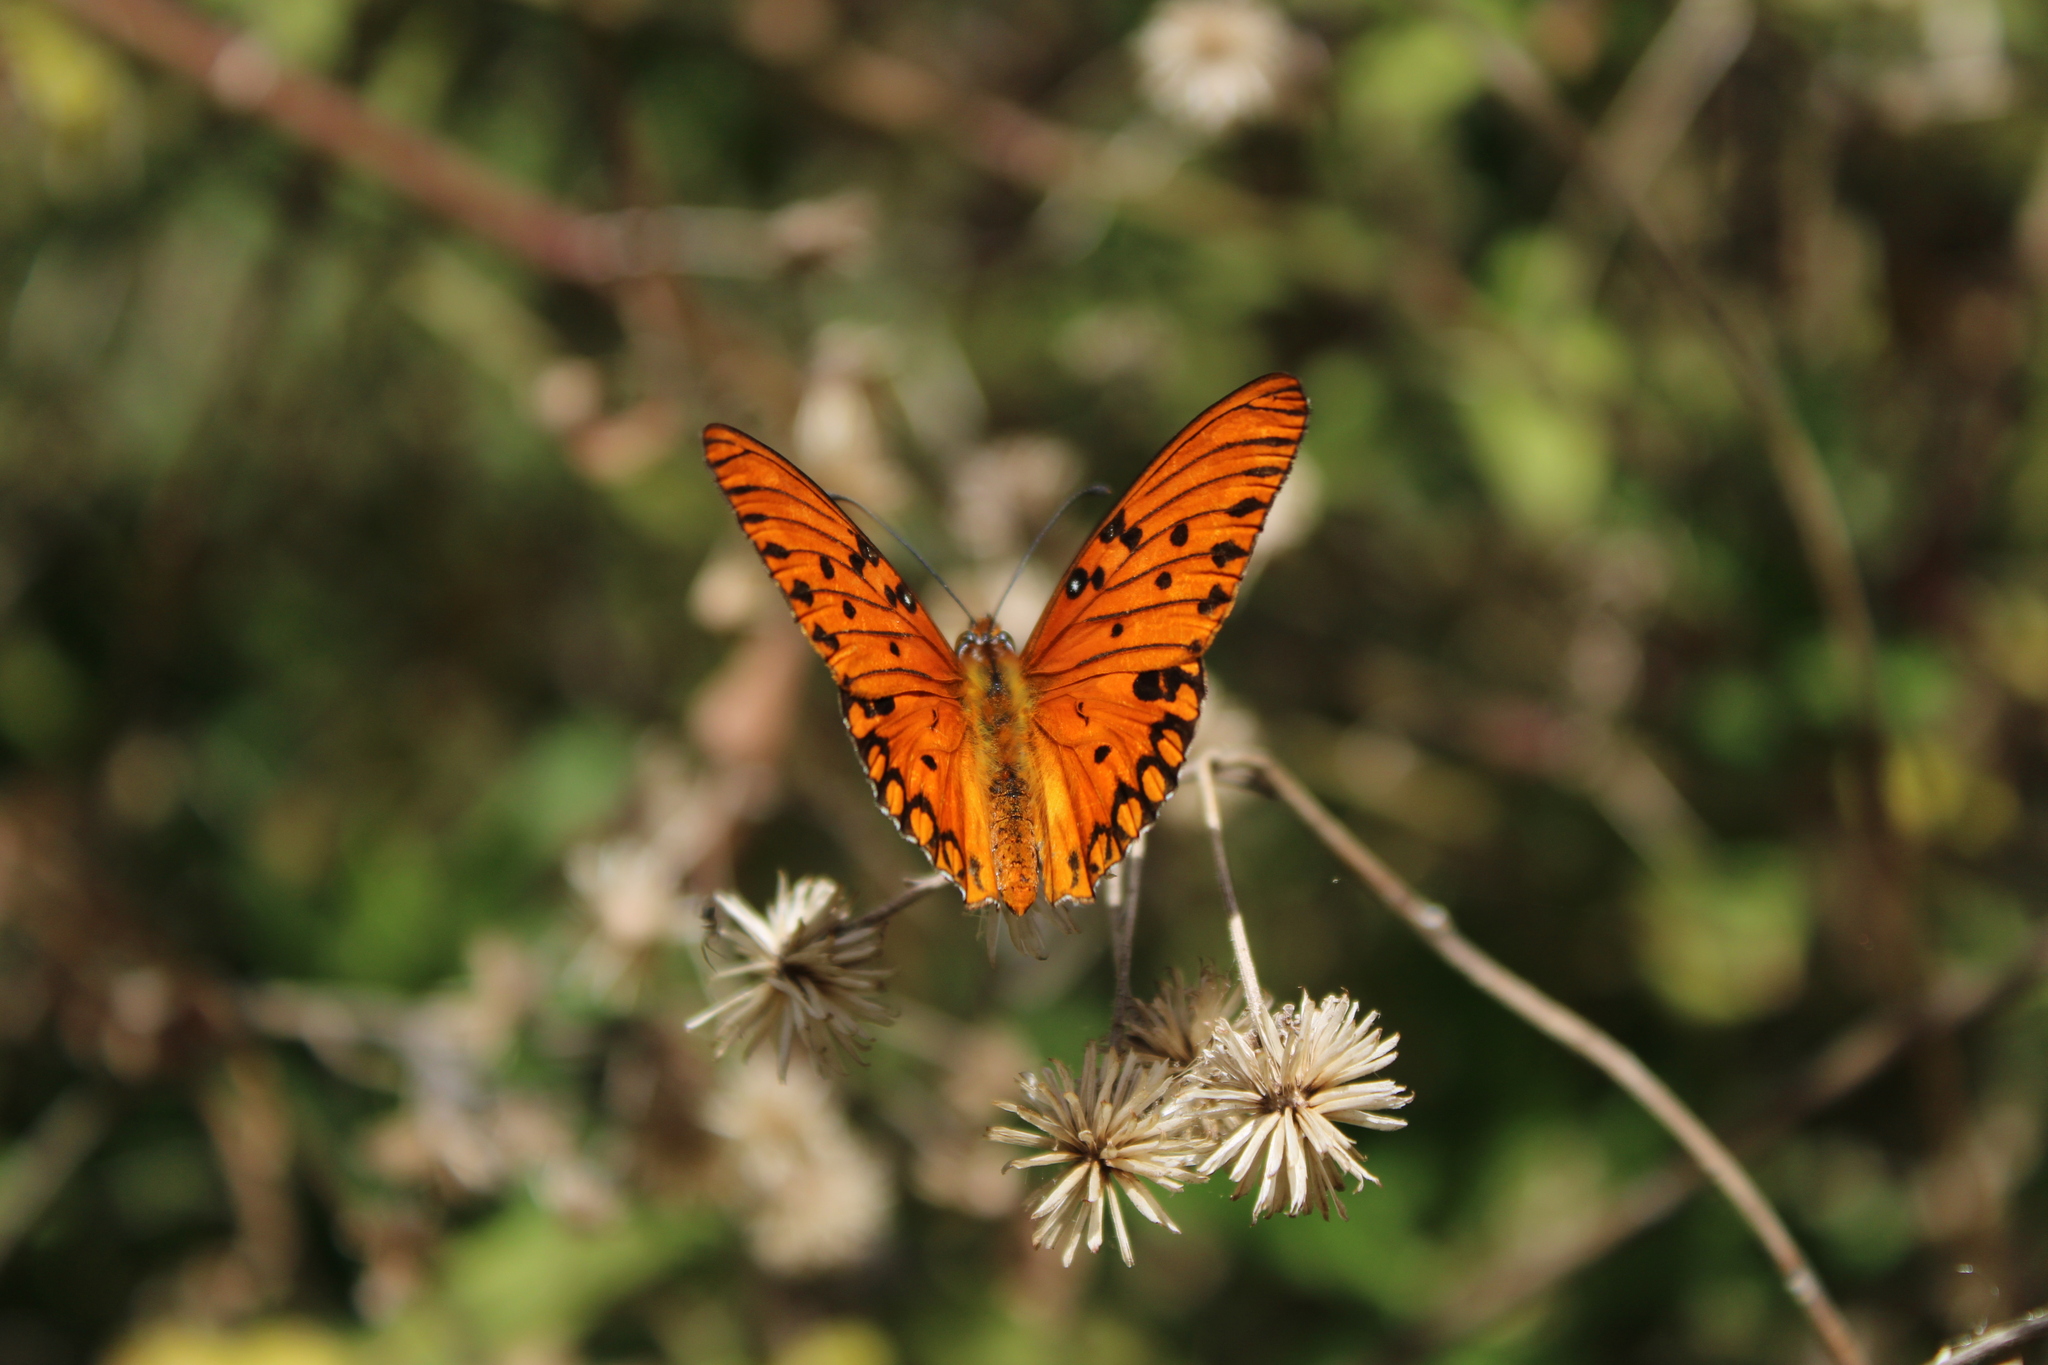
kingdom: Animalia
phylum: Arthropoda
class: Insecta
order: Lepidoptera
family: Nymphalidae
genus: Dione
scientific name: Dione vanillae
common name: Gulf fritillary
